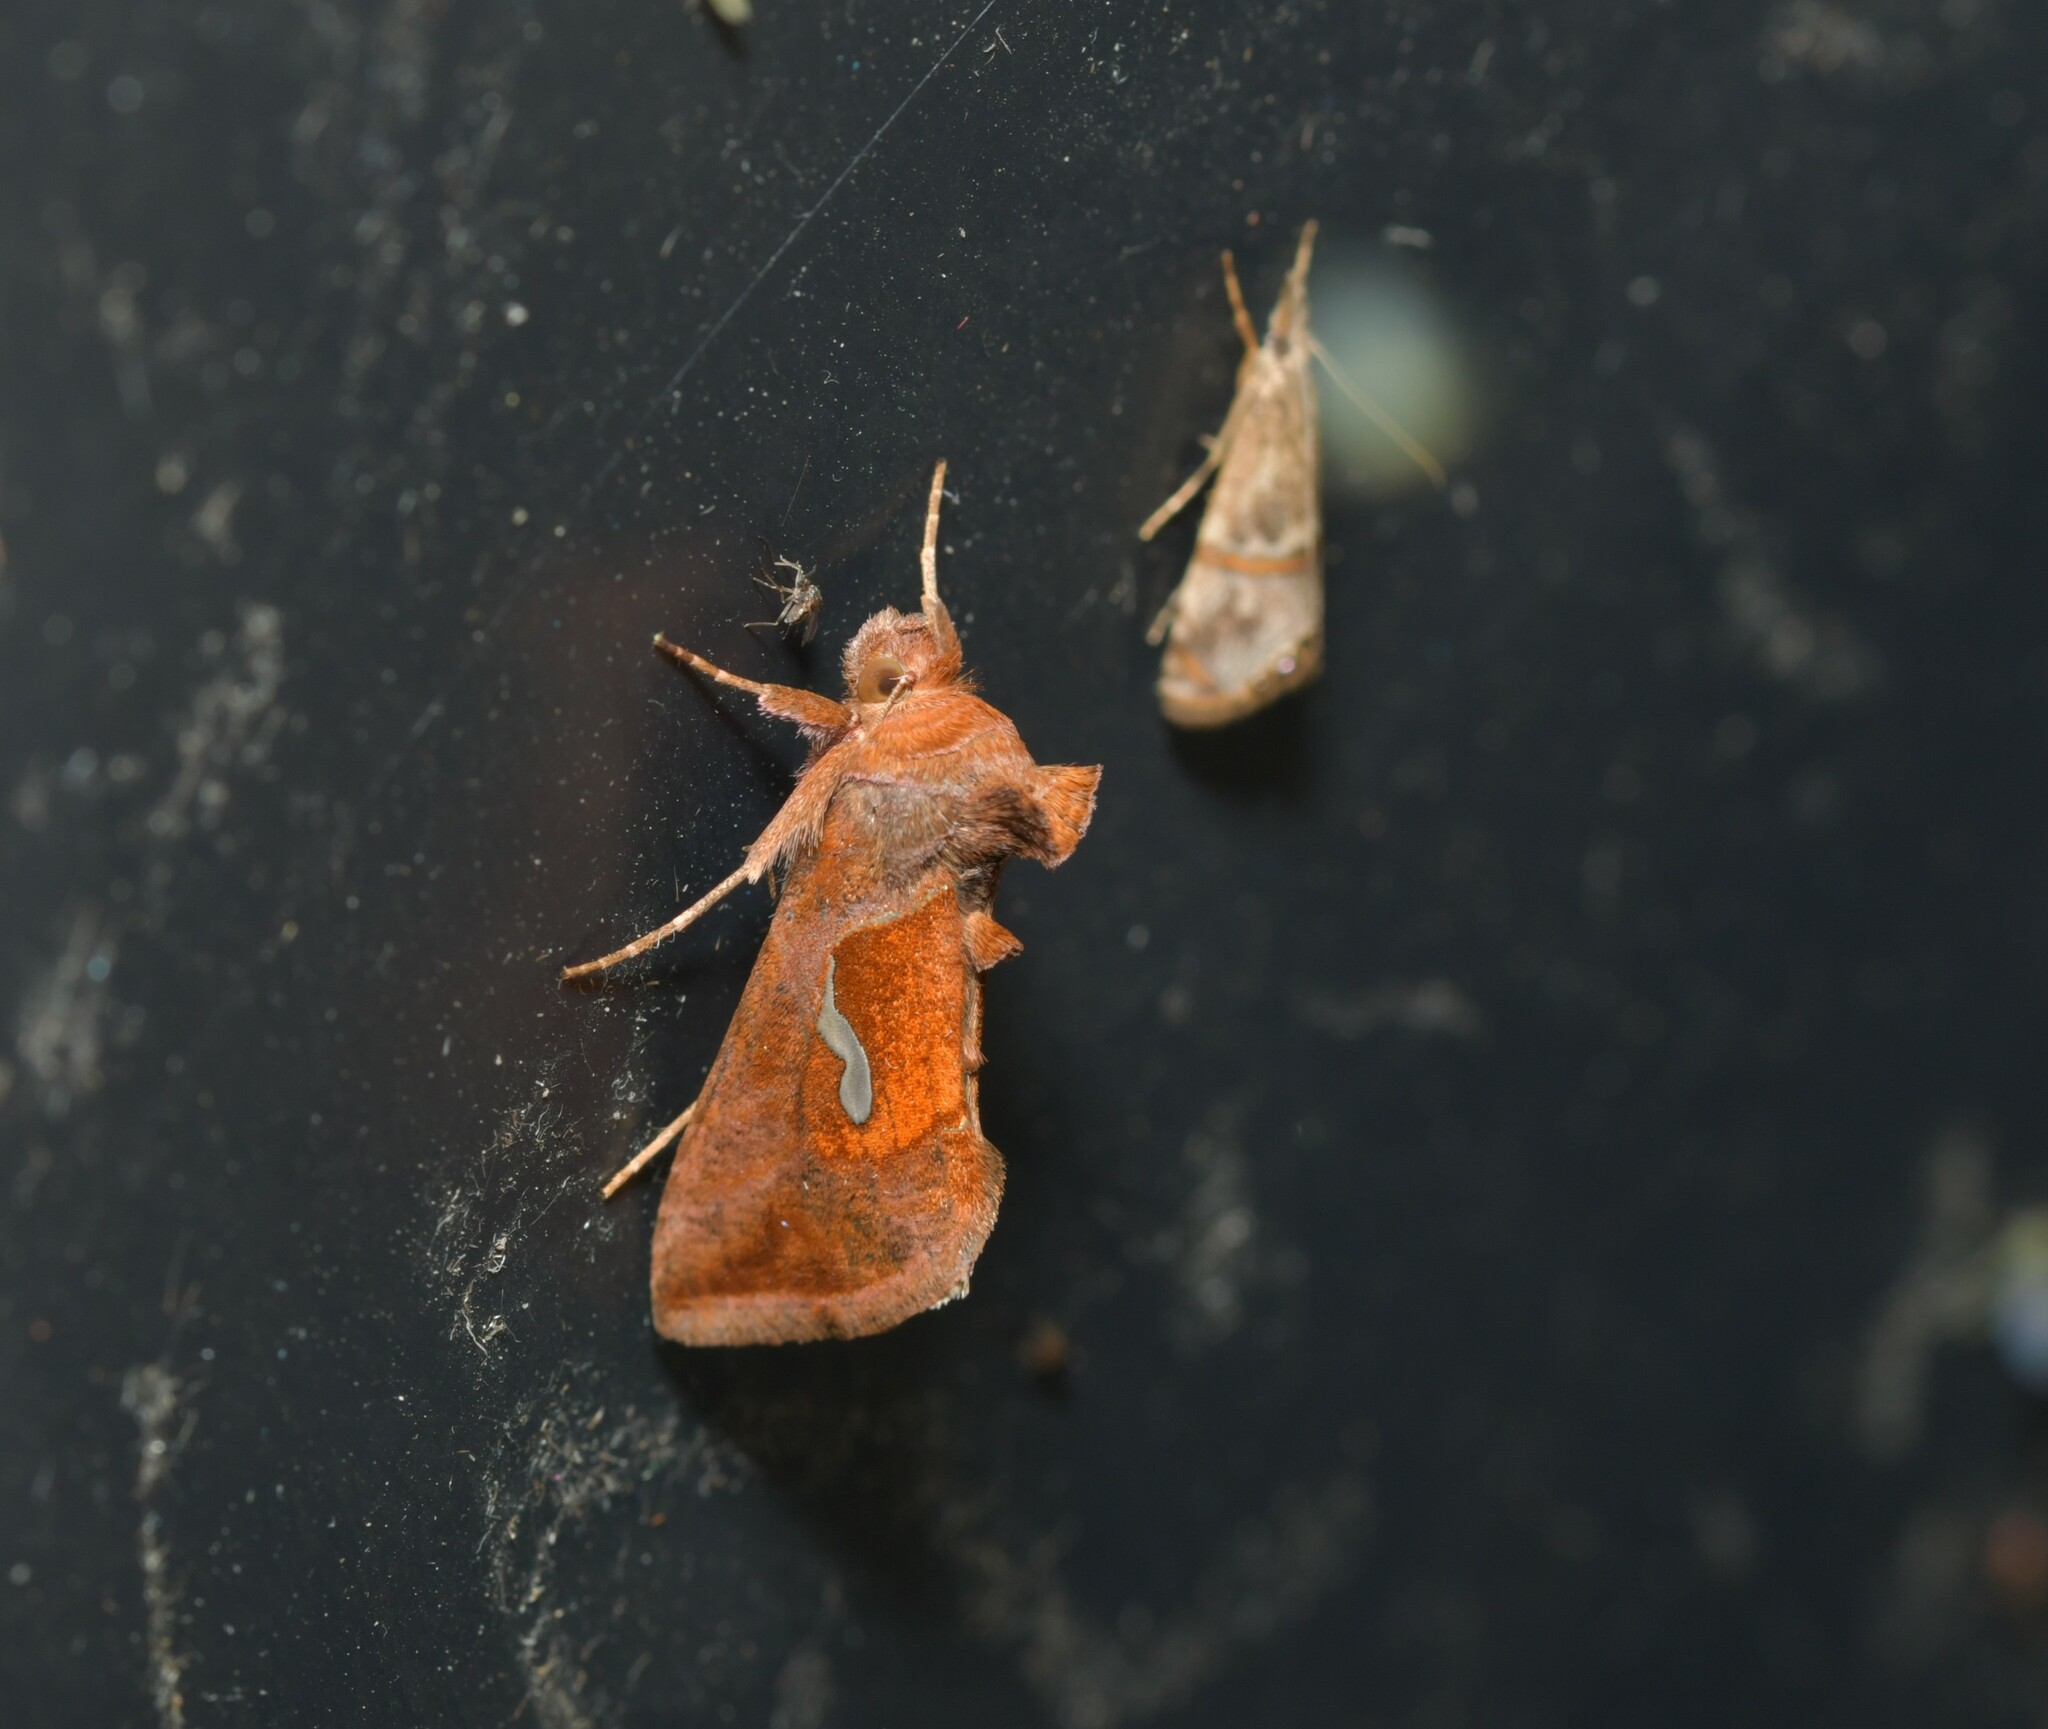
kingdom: Animalia
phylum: Arthropoda
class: Insecta
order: Lepidoptera
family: Noctuidae
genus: Macdunnoughia
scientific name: Macdunnoughia confusa
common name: Dewick's plusia
